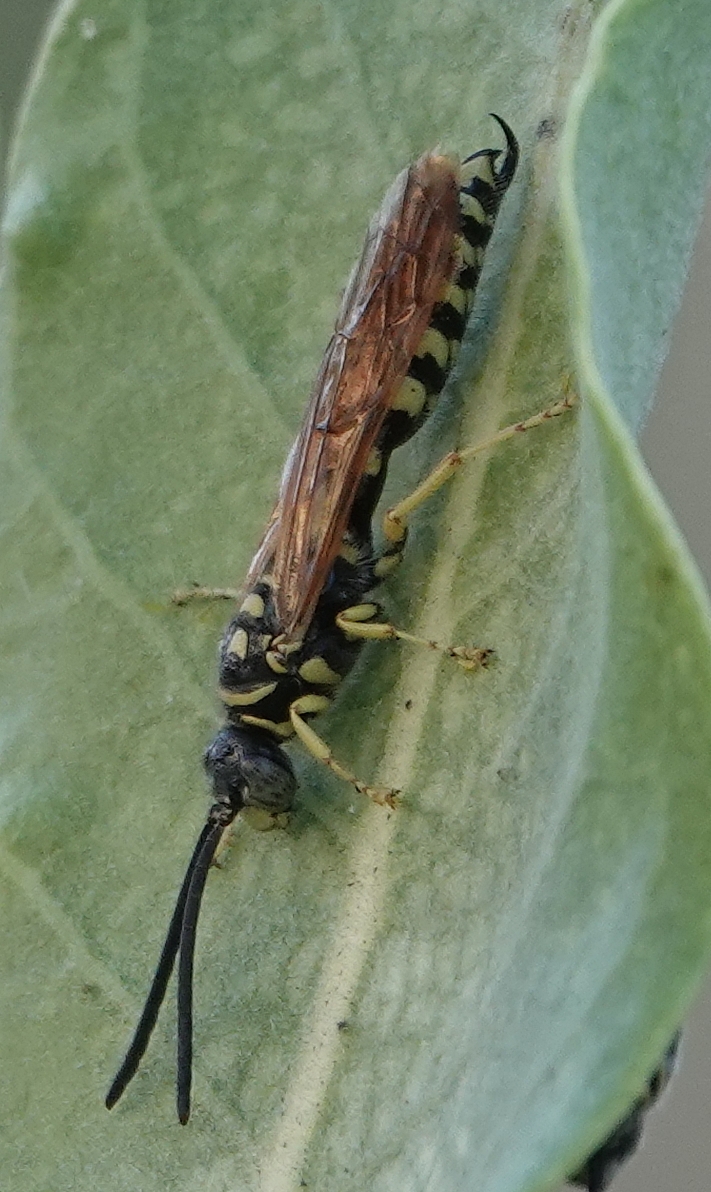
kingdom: Animalia
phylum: Arthropoda
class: Insecta
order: Hymenoptera
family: Tiphiidae
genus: Myzinum
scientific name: Myzinum quinquecinctum
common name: Five-banded thynnid wasp
